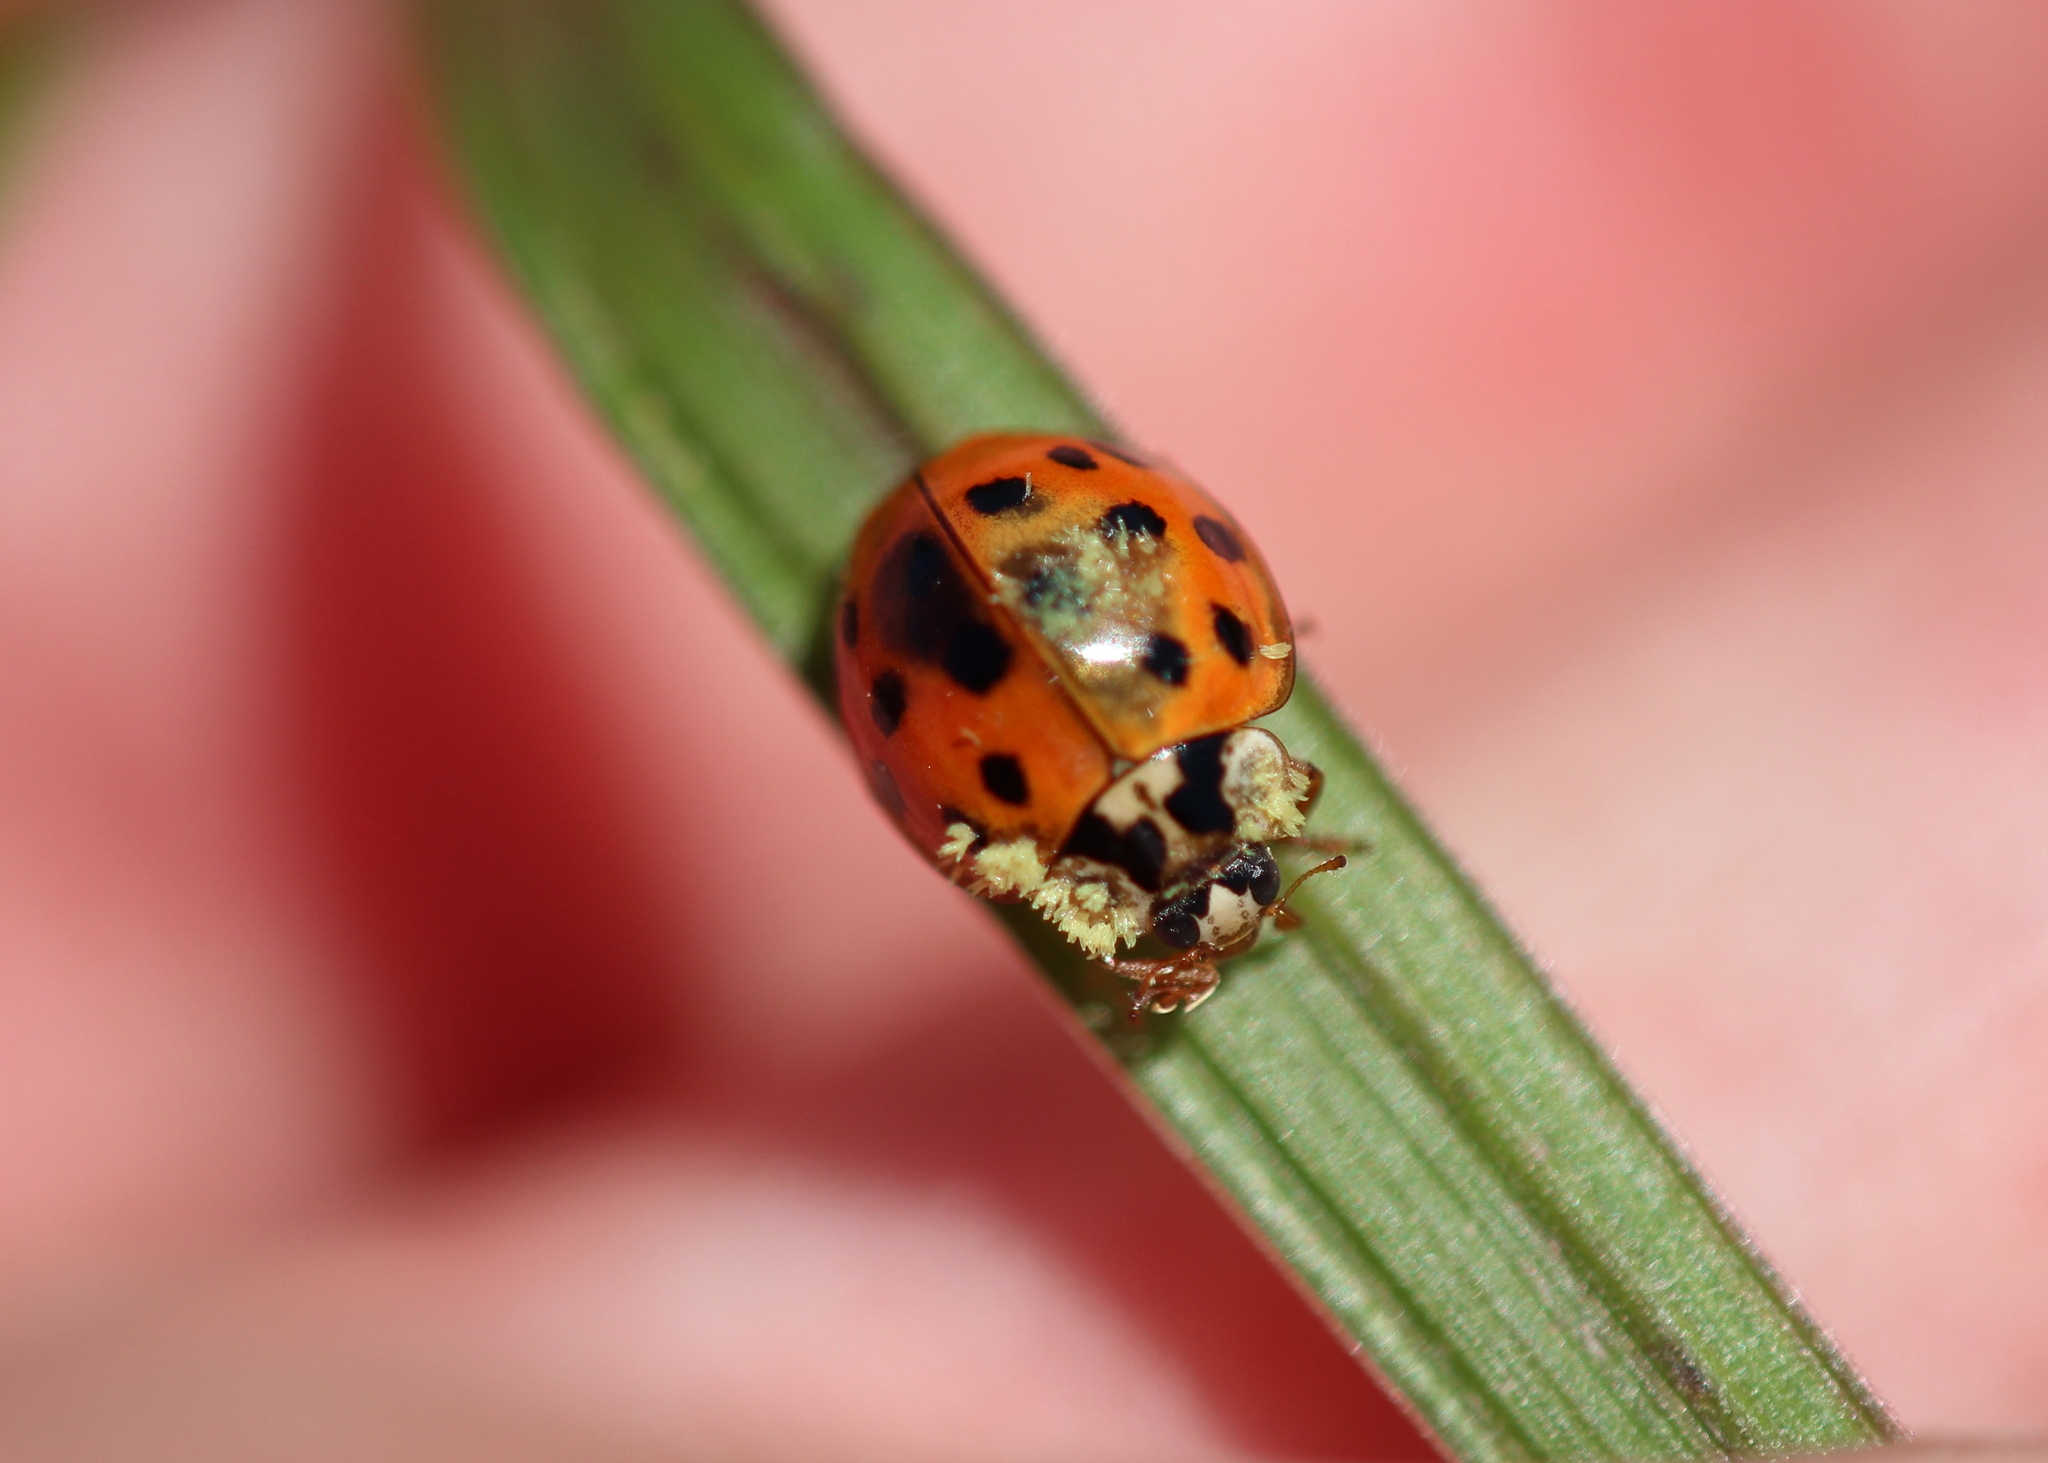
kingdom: Animalia
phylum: Arthropoda
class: Insecta
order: Coleoptera
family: Coccinellidae
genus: Harmonia
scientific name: Harmonia axyridis
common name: Harlequin ladybird
